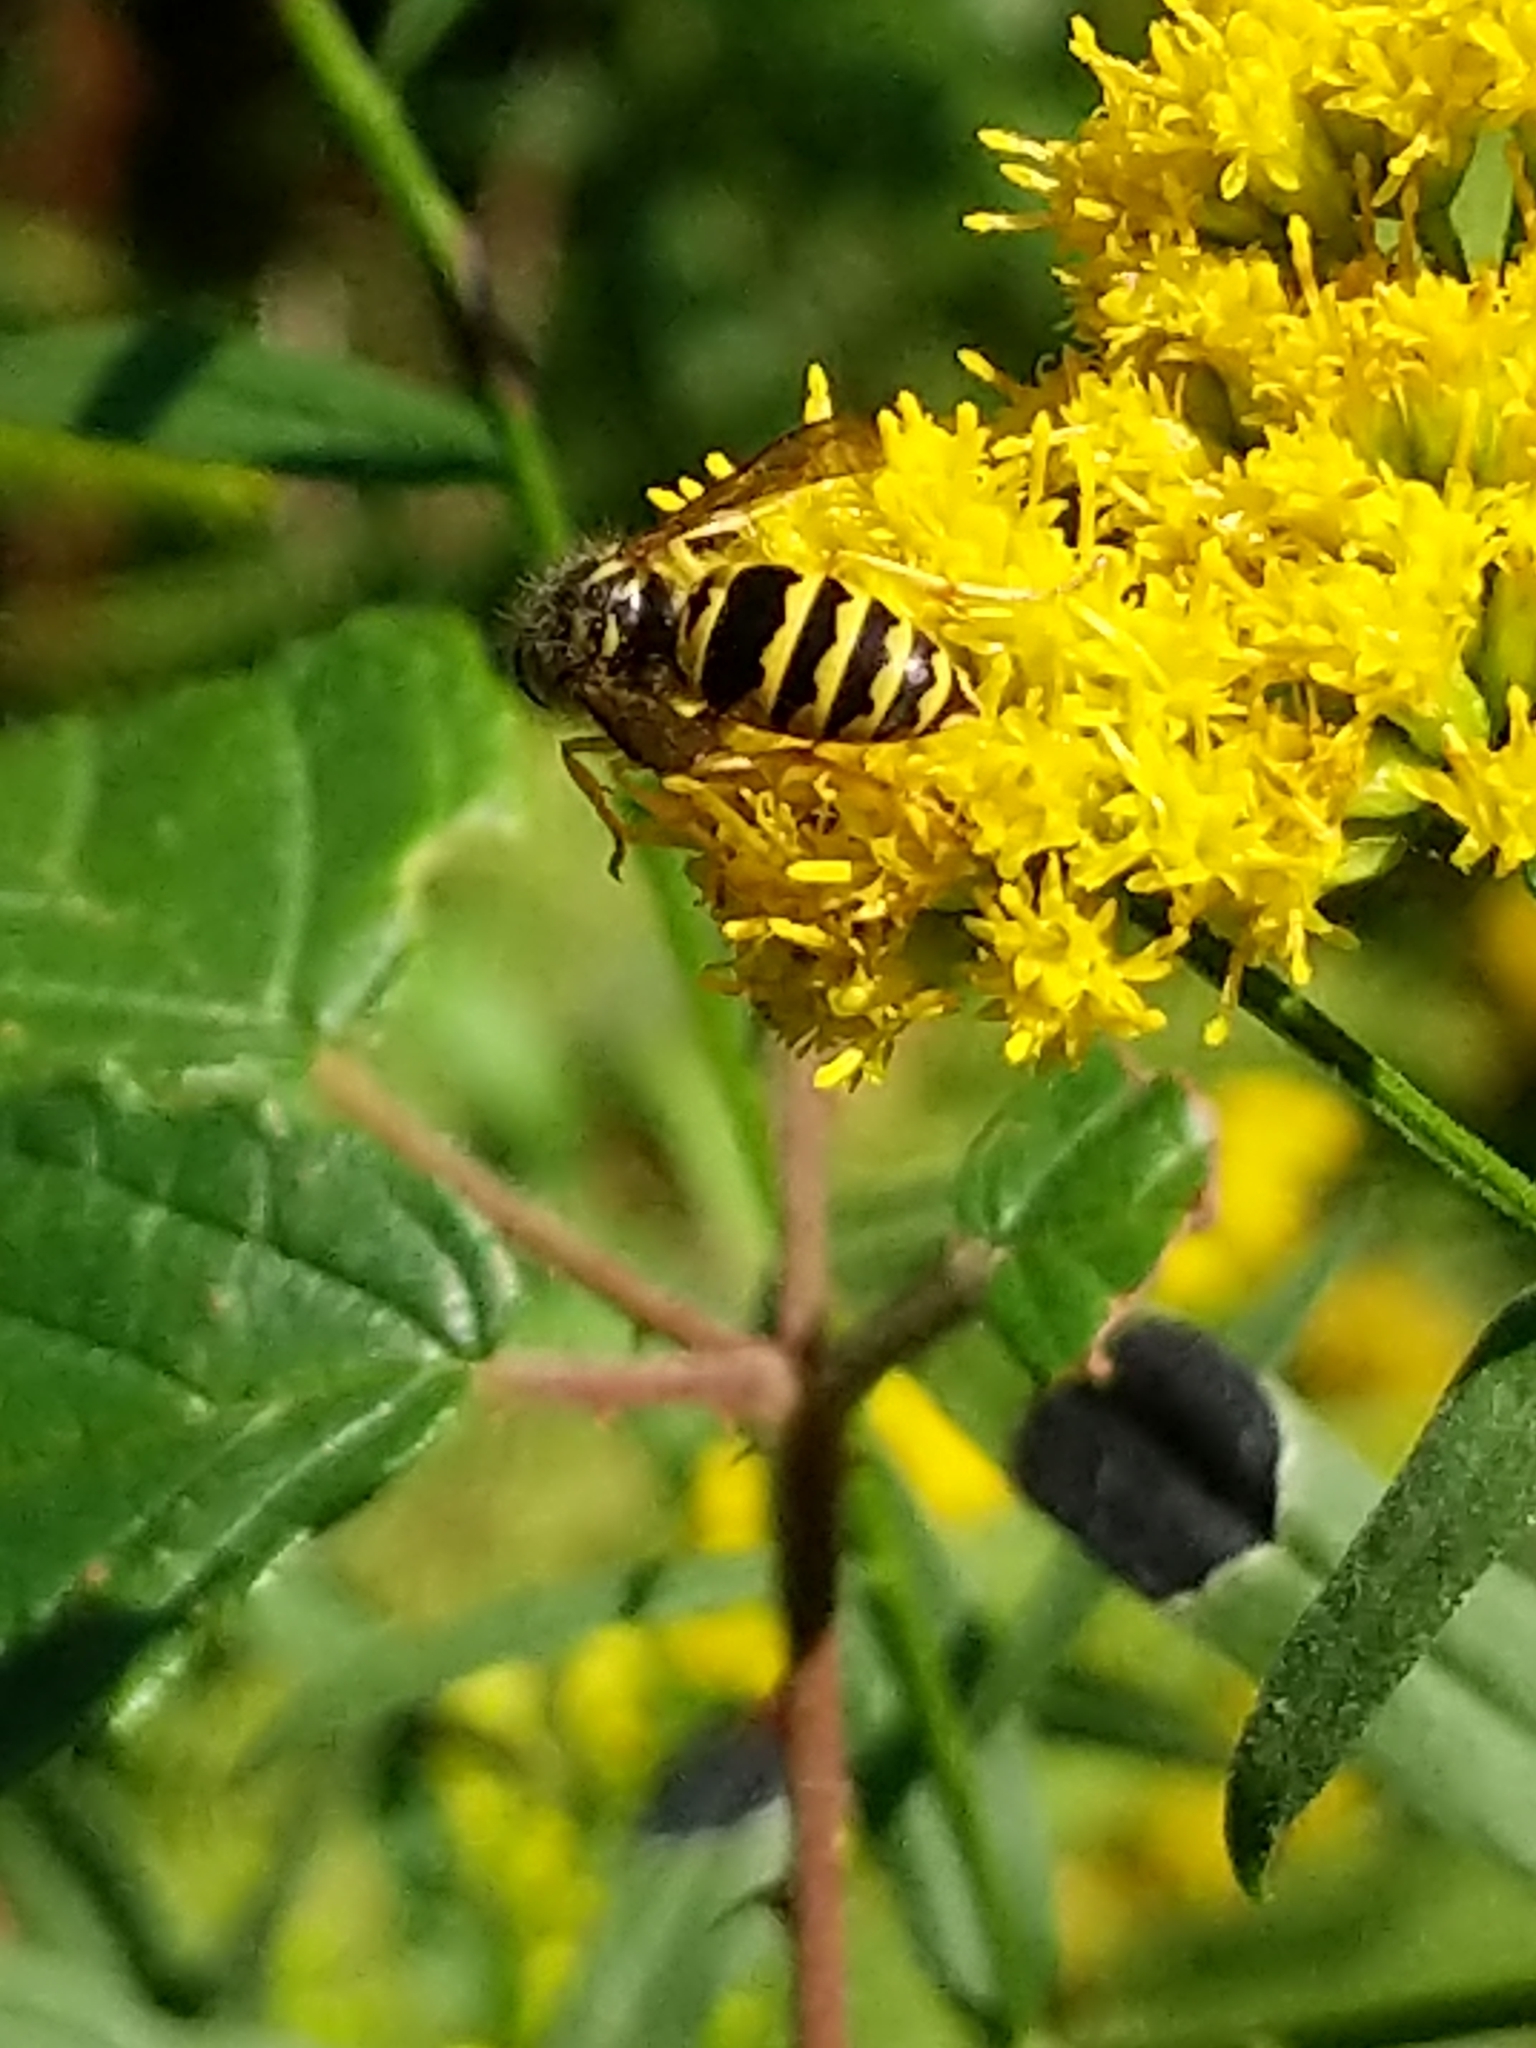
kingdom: Animalia
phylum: Arthropoda
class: Insecta
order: Hymenoptera
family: Vespidae
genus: Vespula
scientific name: Vespula maculifrons
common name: Eastern yellowjacket
